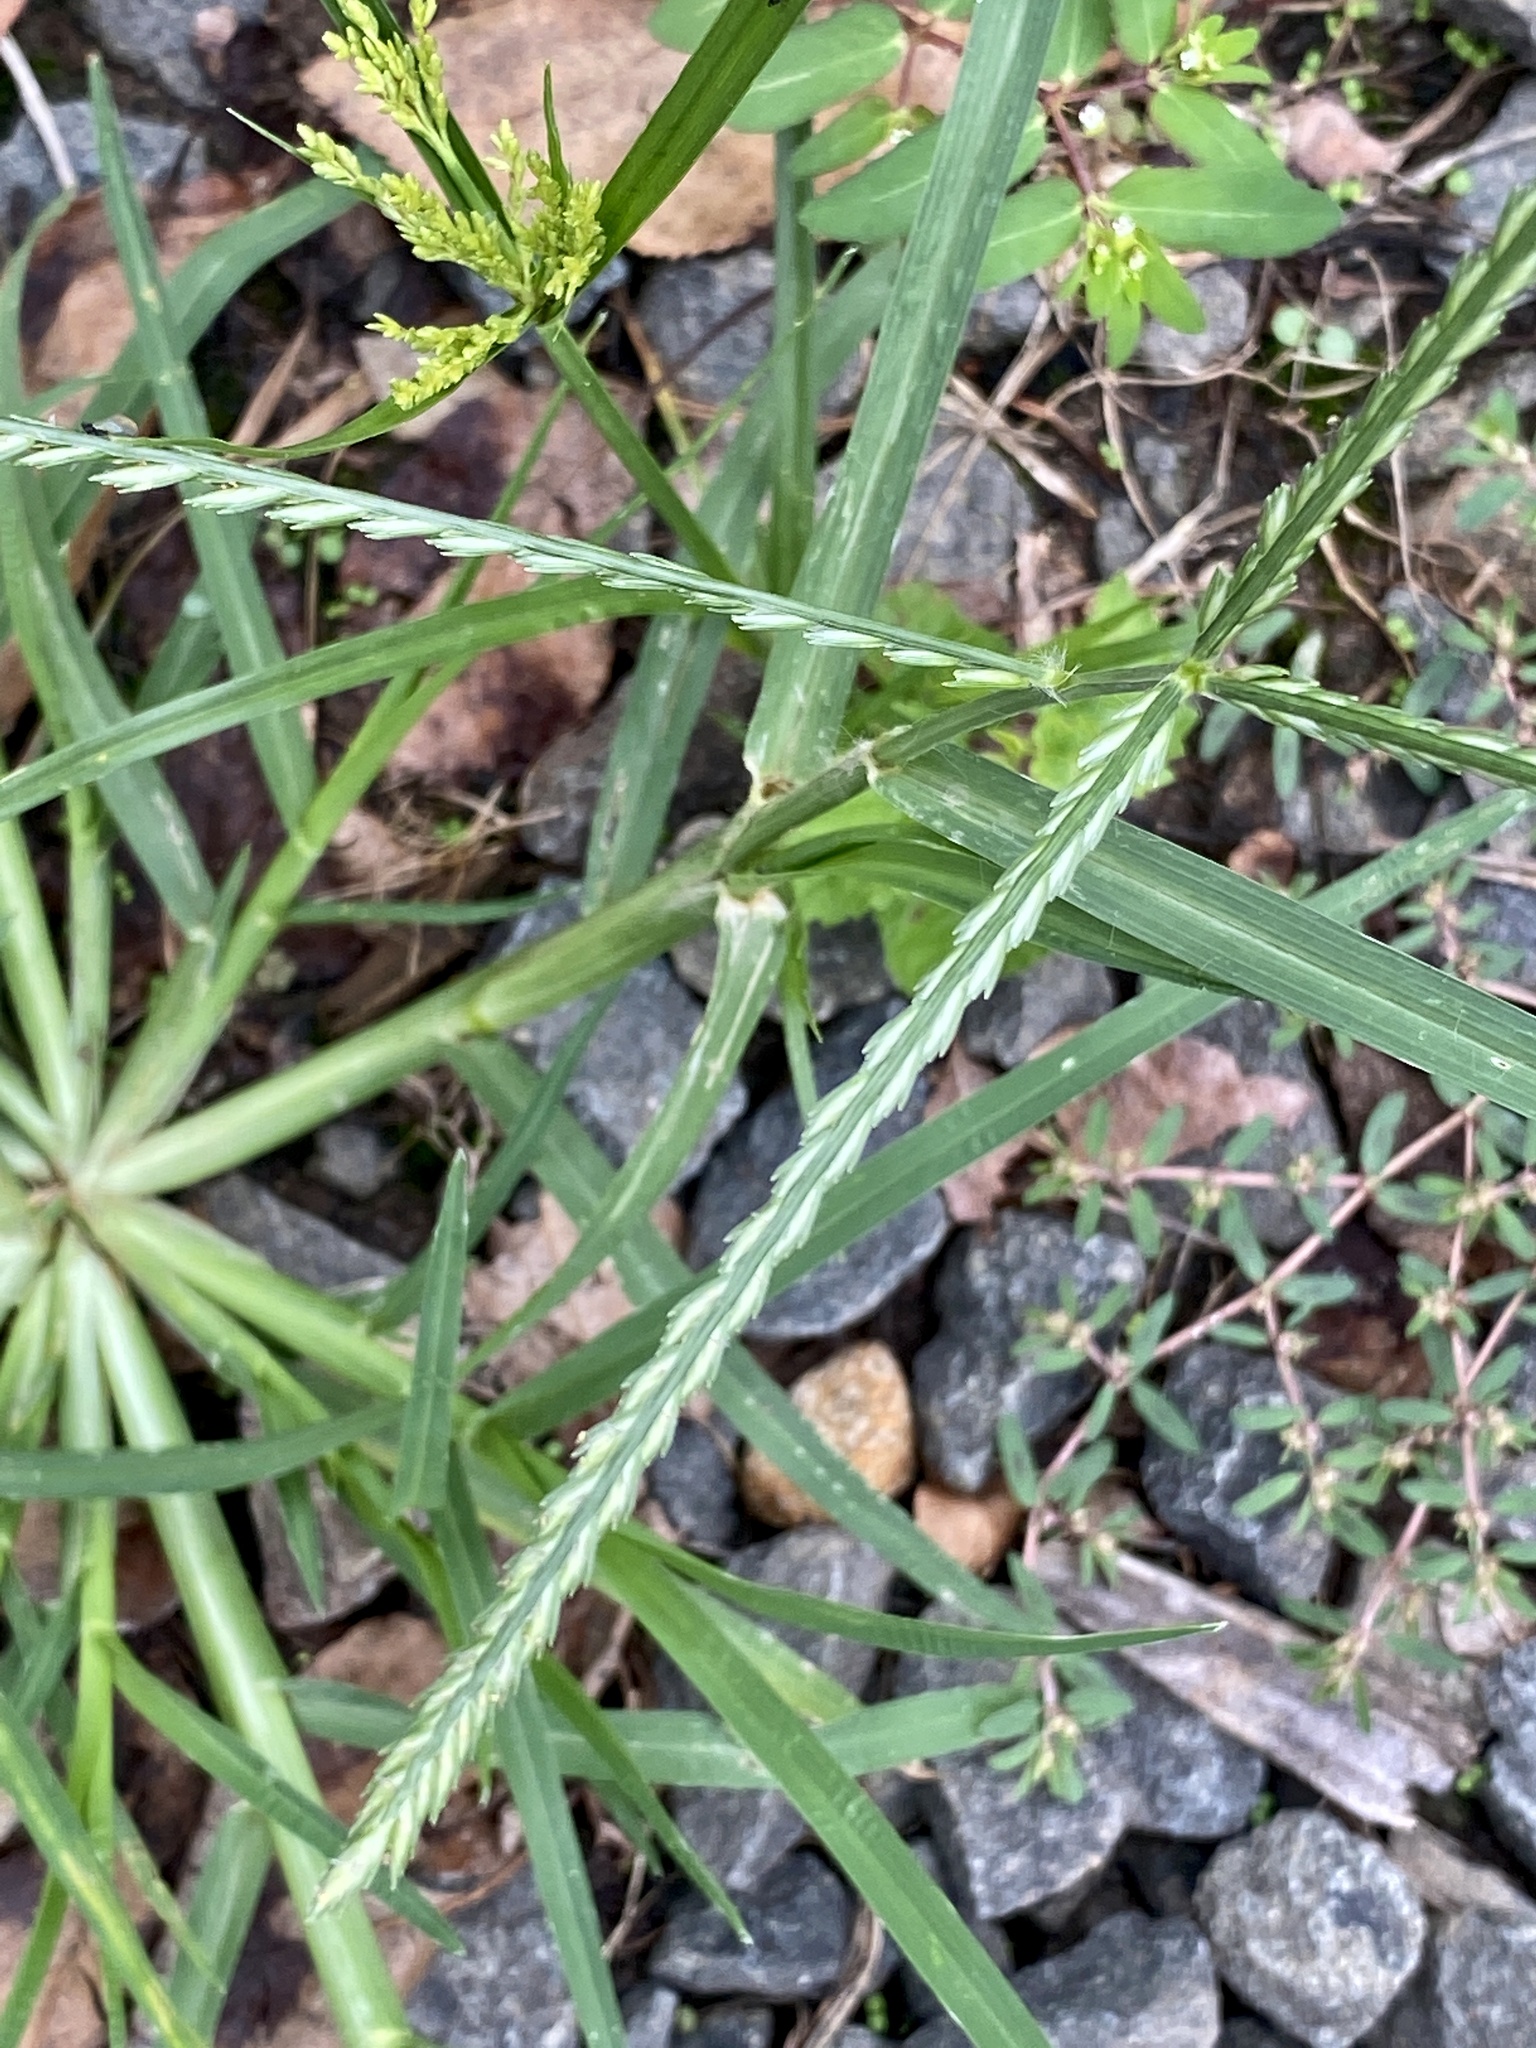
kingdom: Plantae
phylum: Tracheophyta
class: Liliopsida
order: Poales
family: Poaceae
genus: Eleusine
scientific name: Eleusine indica
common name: Yard-grass
